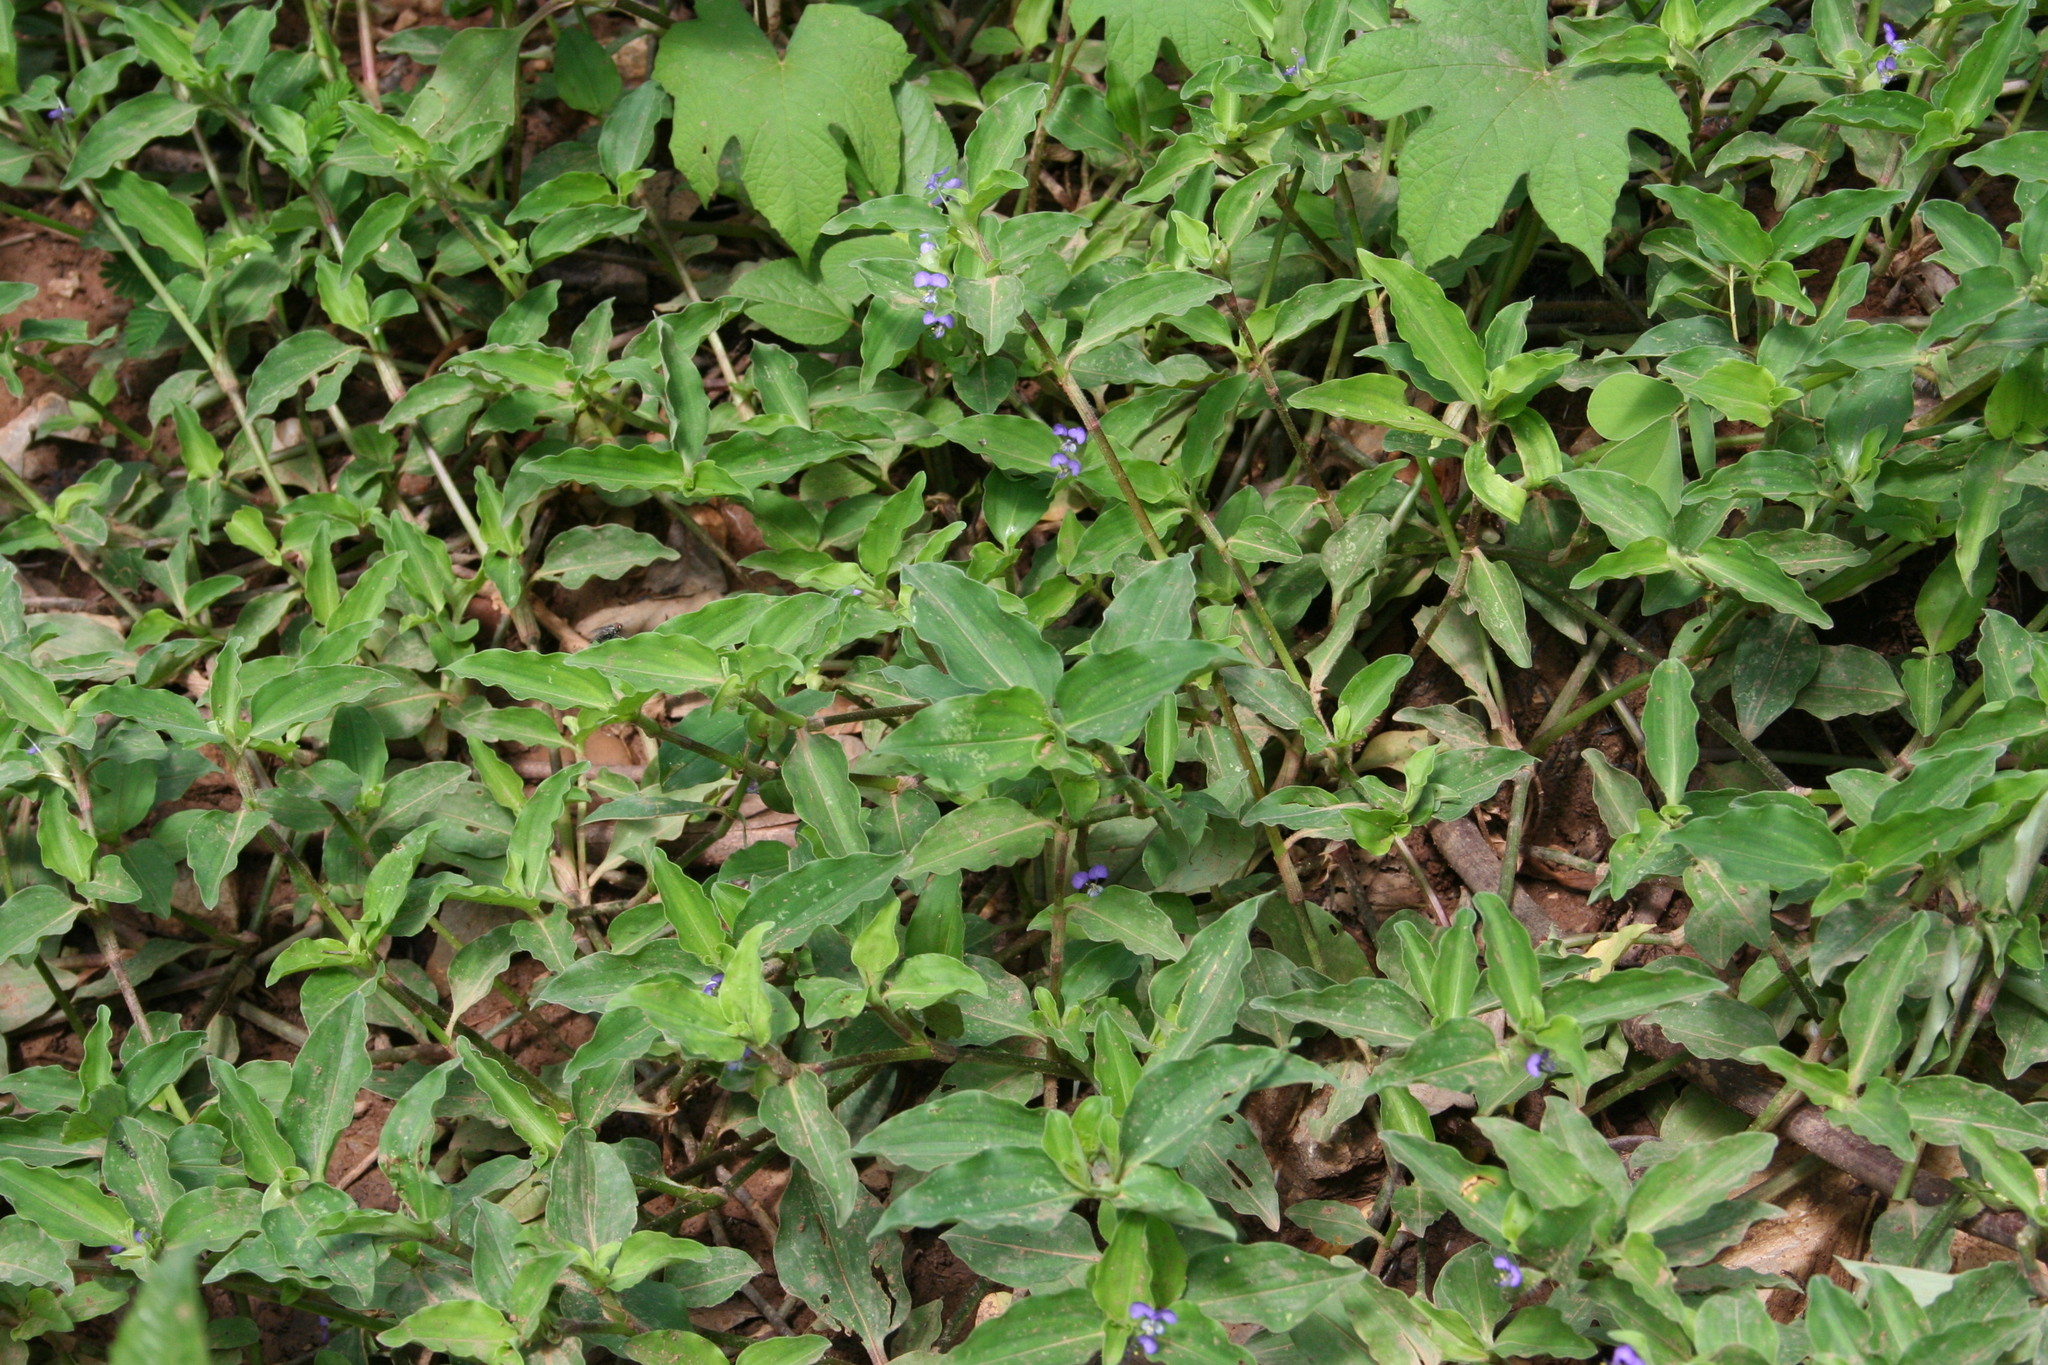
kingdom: Plantae
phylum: Tracheophyta
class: Liliopsida
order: Commelinales
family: Commelinaceae
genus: Commelina
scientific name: Commelina benghalensis
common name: Jio
